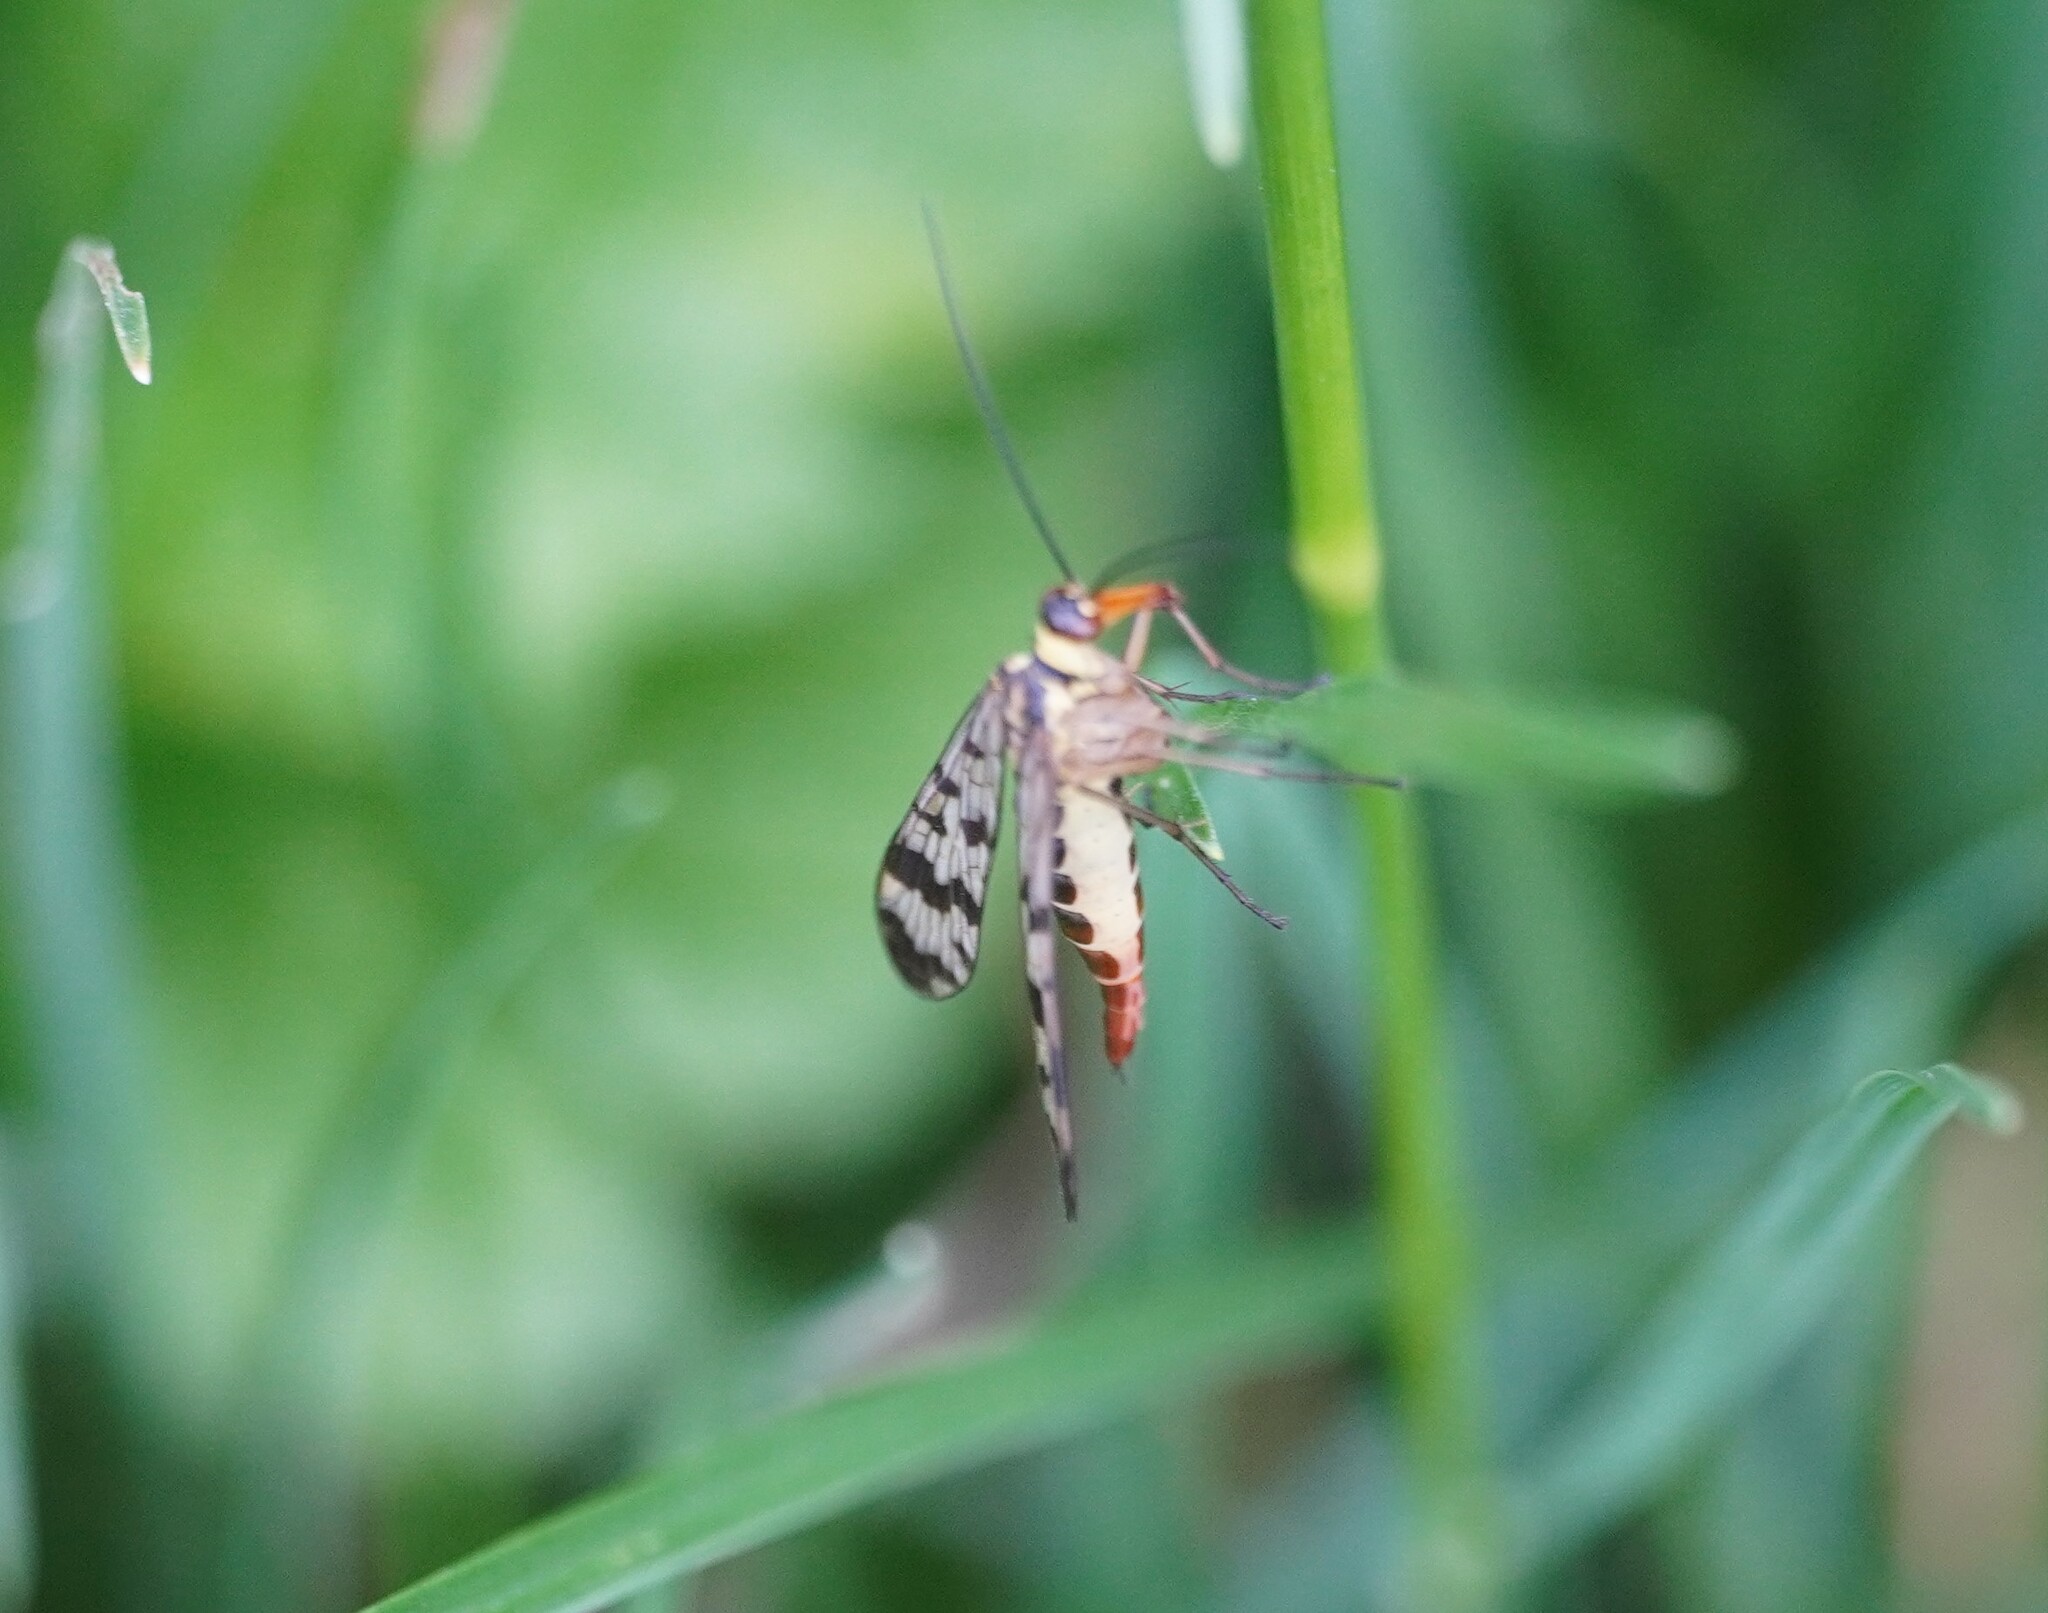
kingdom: Animalia
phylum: Arthropoda
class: Insecta
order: Mecoptera
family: Panorpidae
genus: Panorpa
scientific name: Panorpa communis
